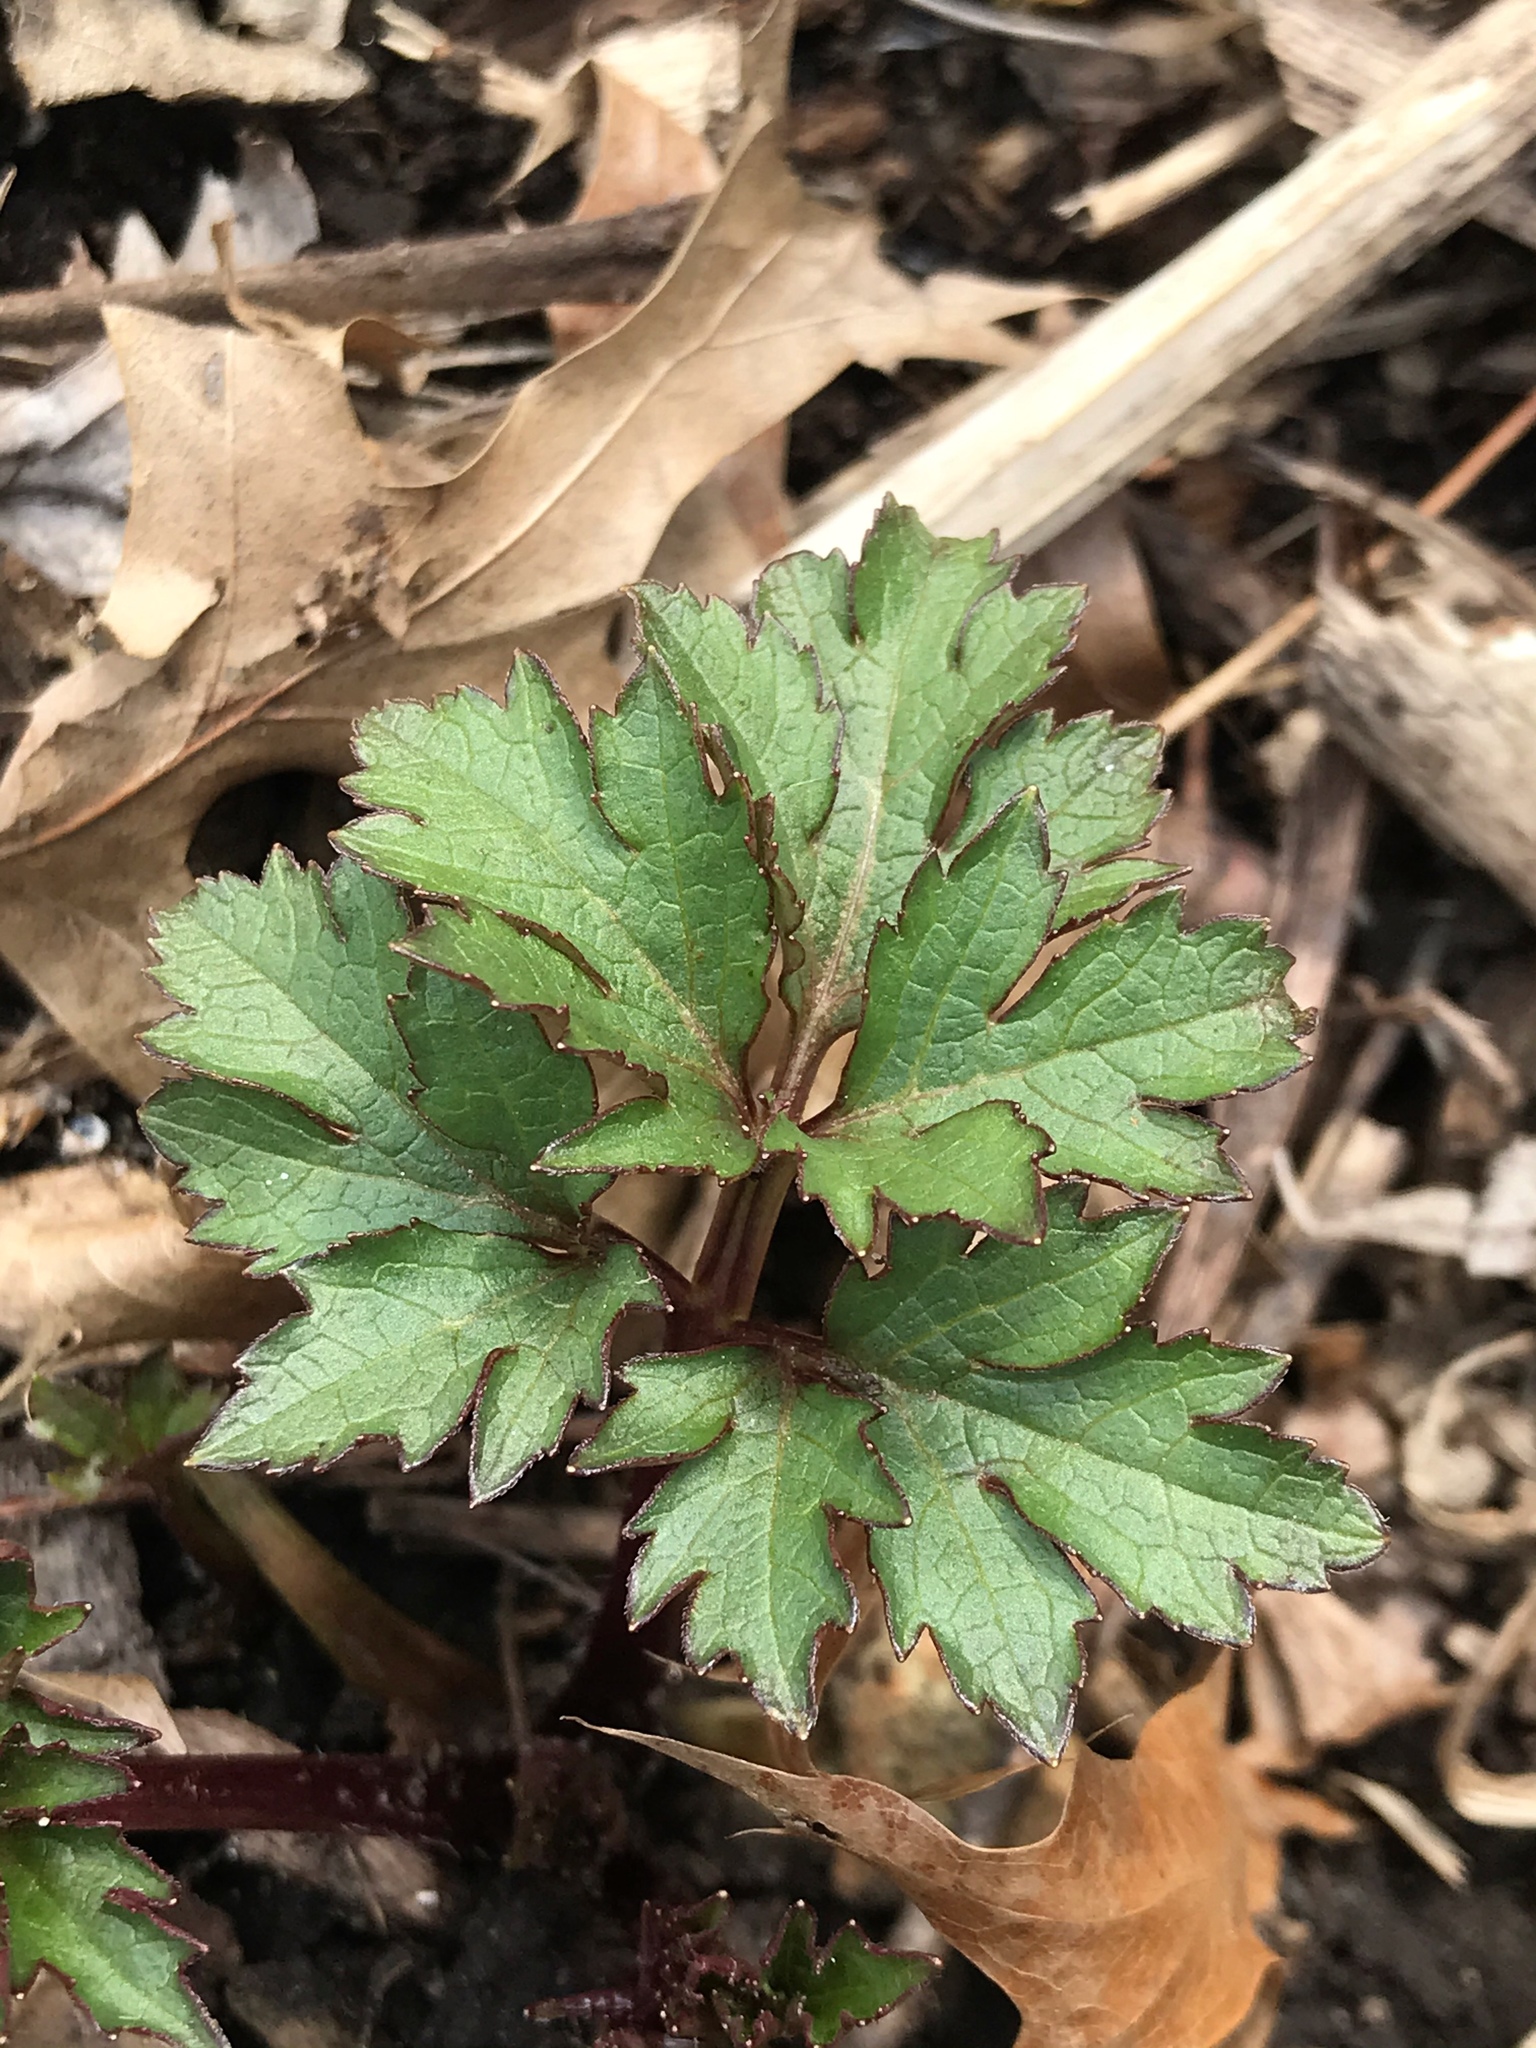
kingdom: Plantae
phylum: Tracheophyta
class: Magnoliopsida
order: Asterales
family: Asteraceae
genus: Rudbeckia
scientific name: Rudbeckia laciniata
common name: Coneflower
